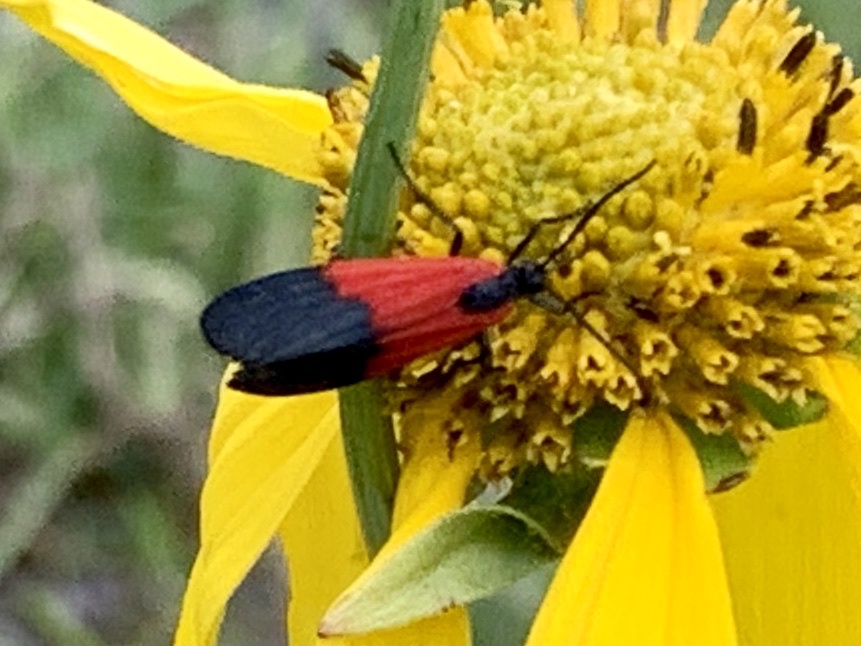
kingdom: Animalia
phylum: Arthropoda
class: Insecta
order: Lepidoptera
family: Erebidae
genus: Lycomorpha
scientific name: Lycomorpha pholus
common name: Black-and-yellow lichen moth
